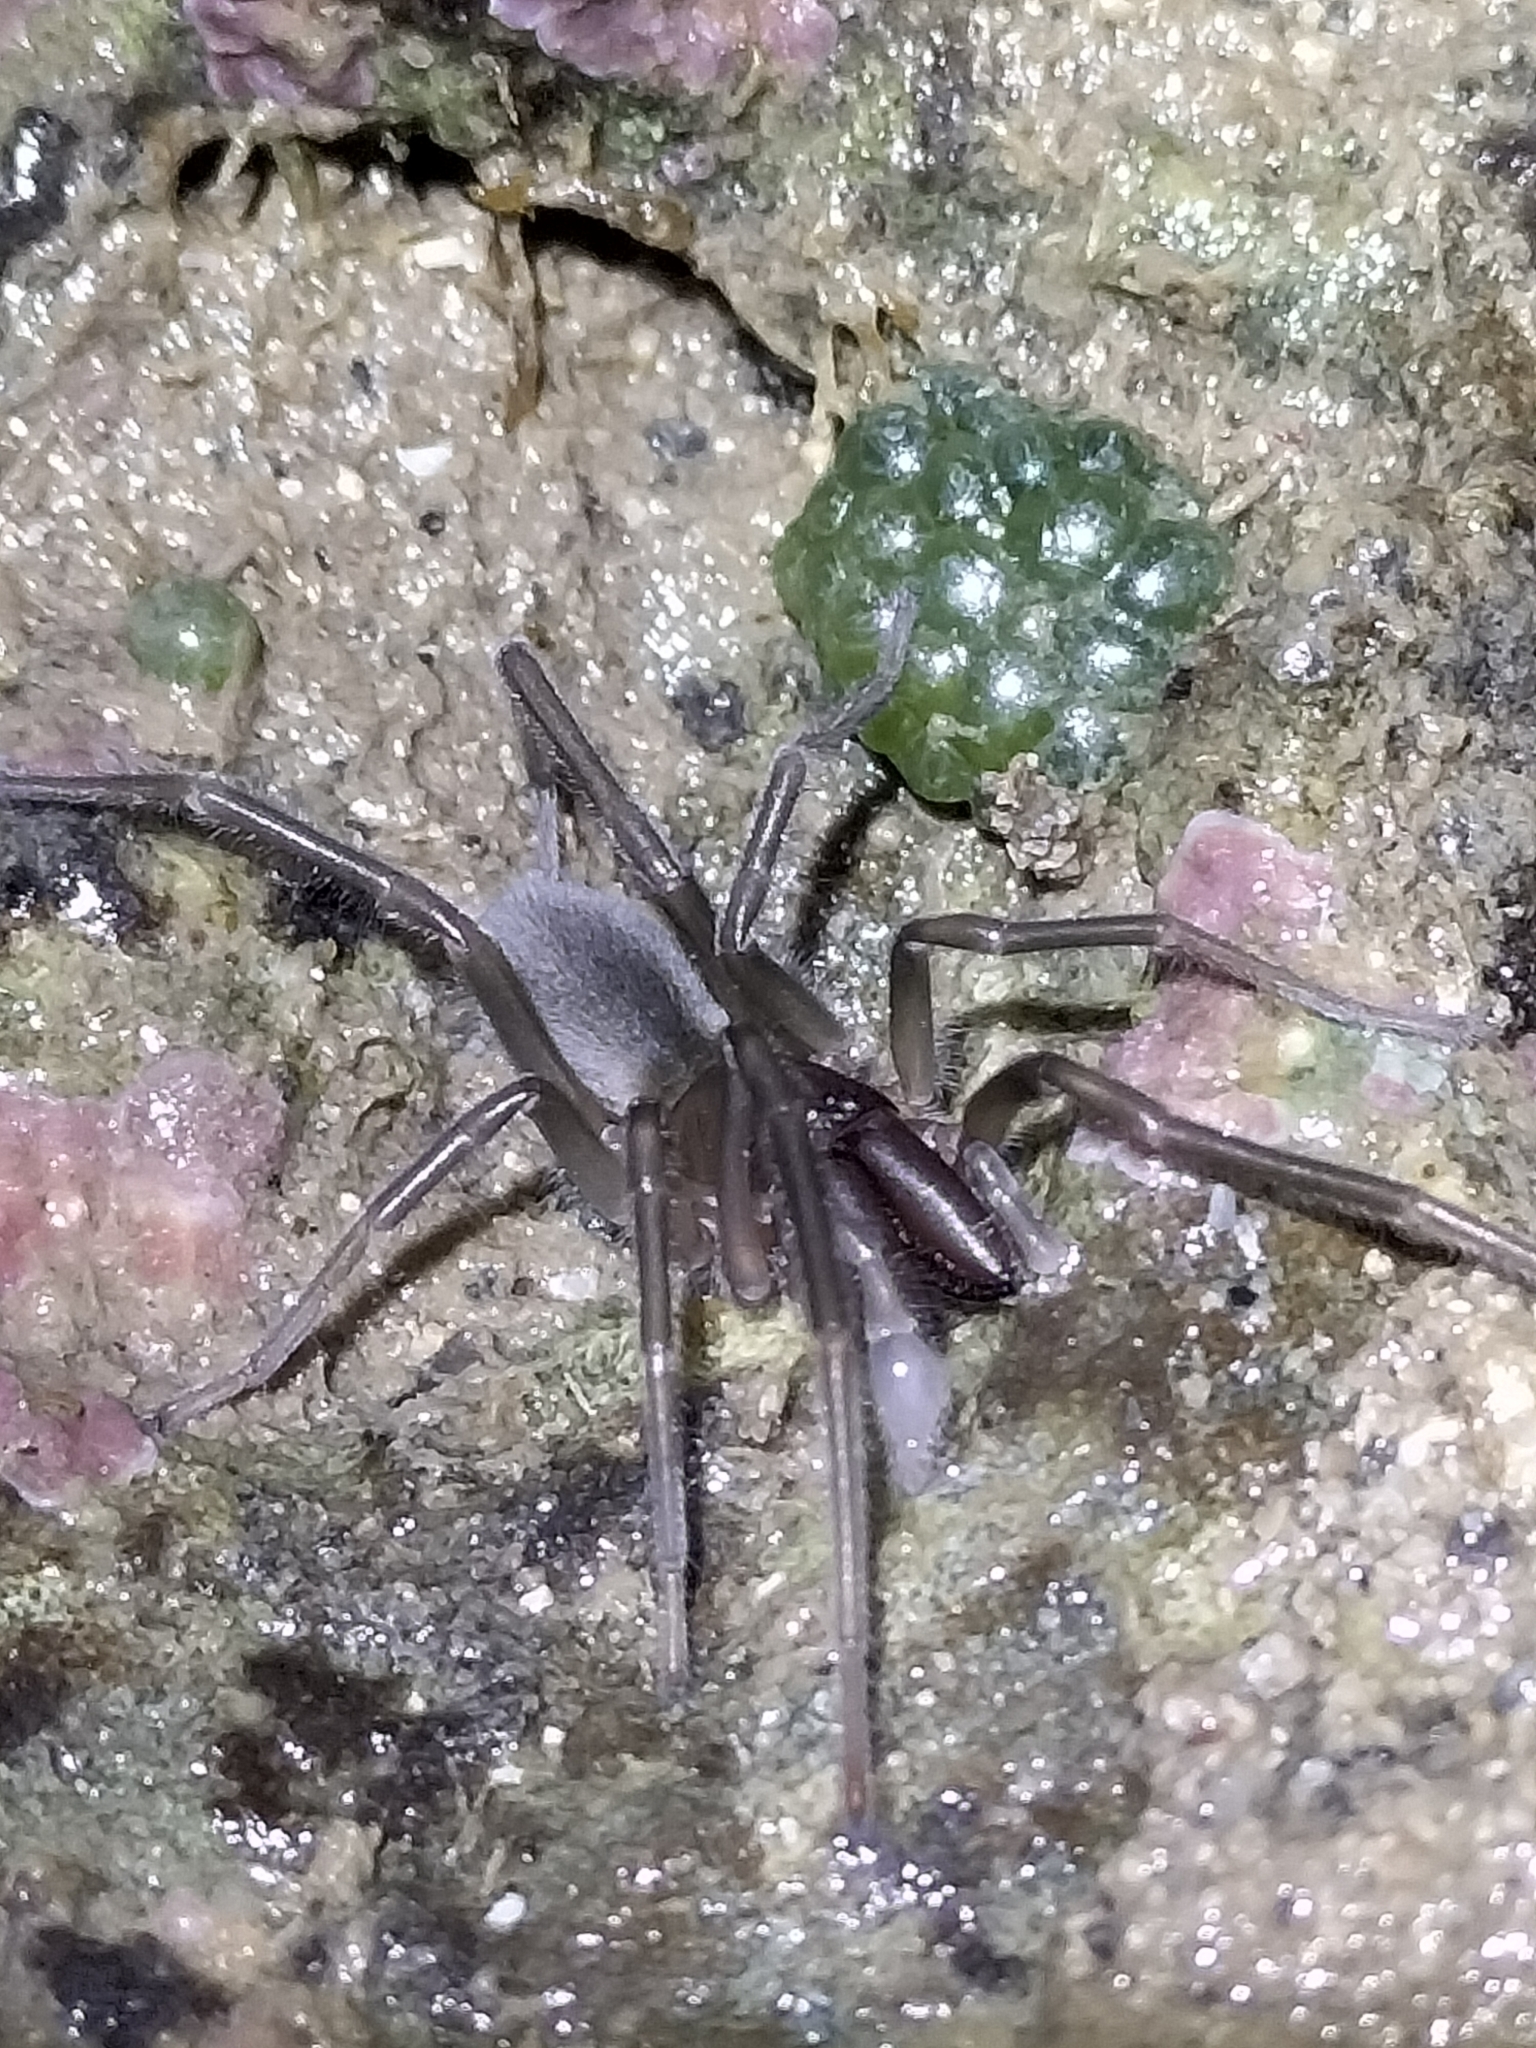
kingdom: Animalia
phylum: Arthropoda
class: Arachnida
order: Araneae
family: Desidae
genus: Desis
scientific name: Desis bobmarleyi
